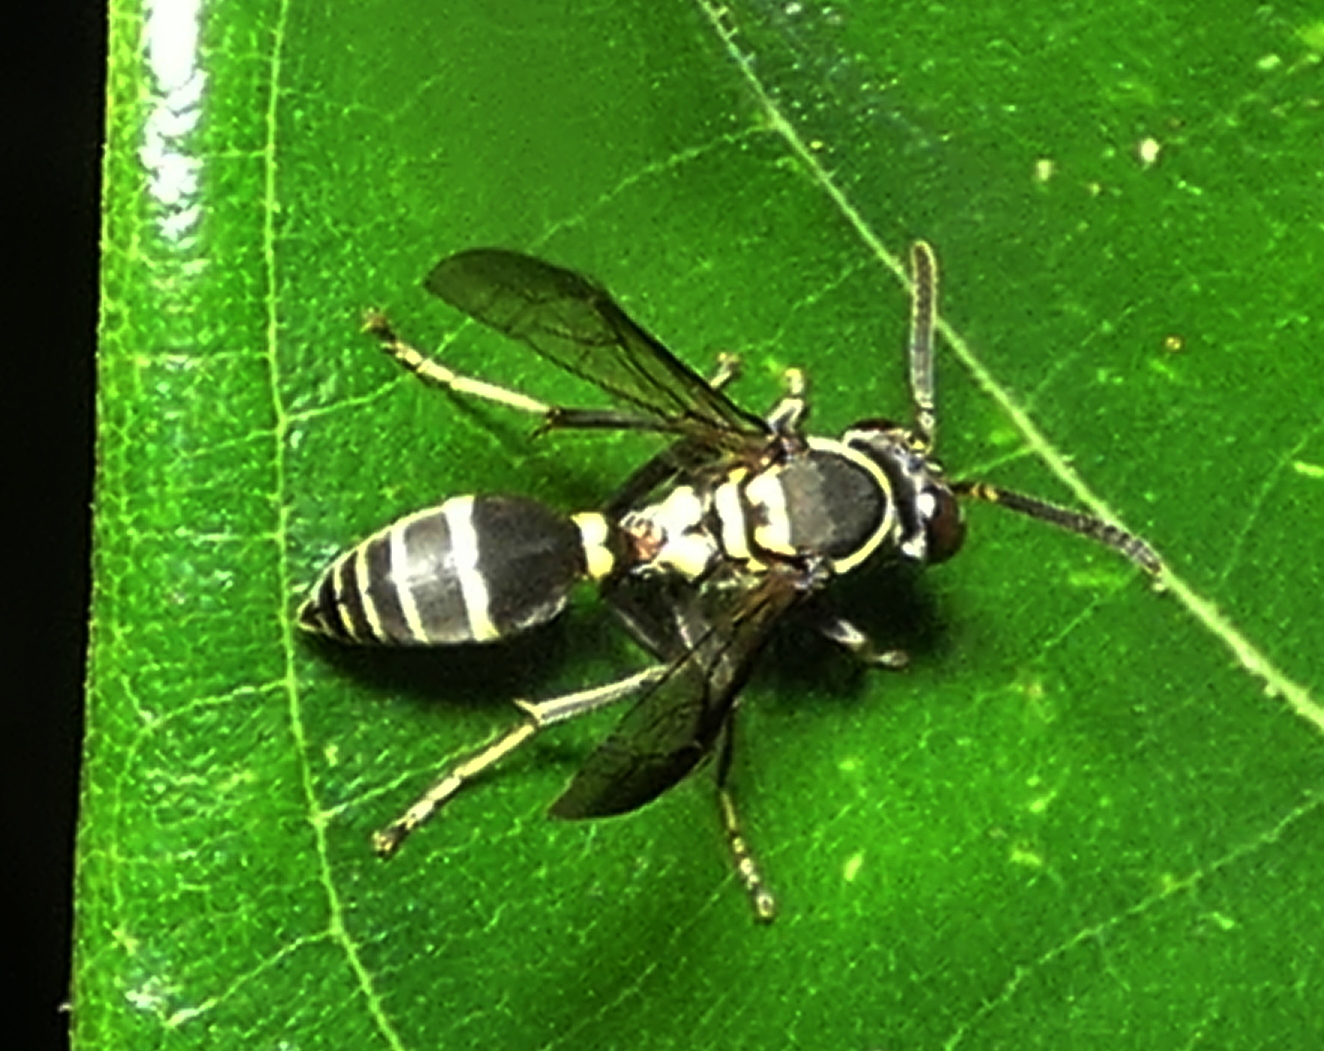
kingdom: Animalia
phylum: Arthropoda
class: Insecta
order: Hymenoptera
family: Eumenidae
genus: Polybia
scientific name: Polybia occidentalis
